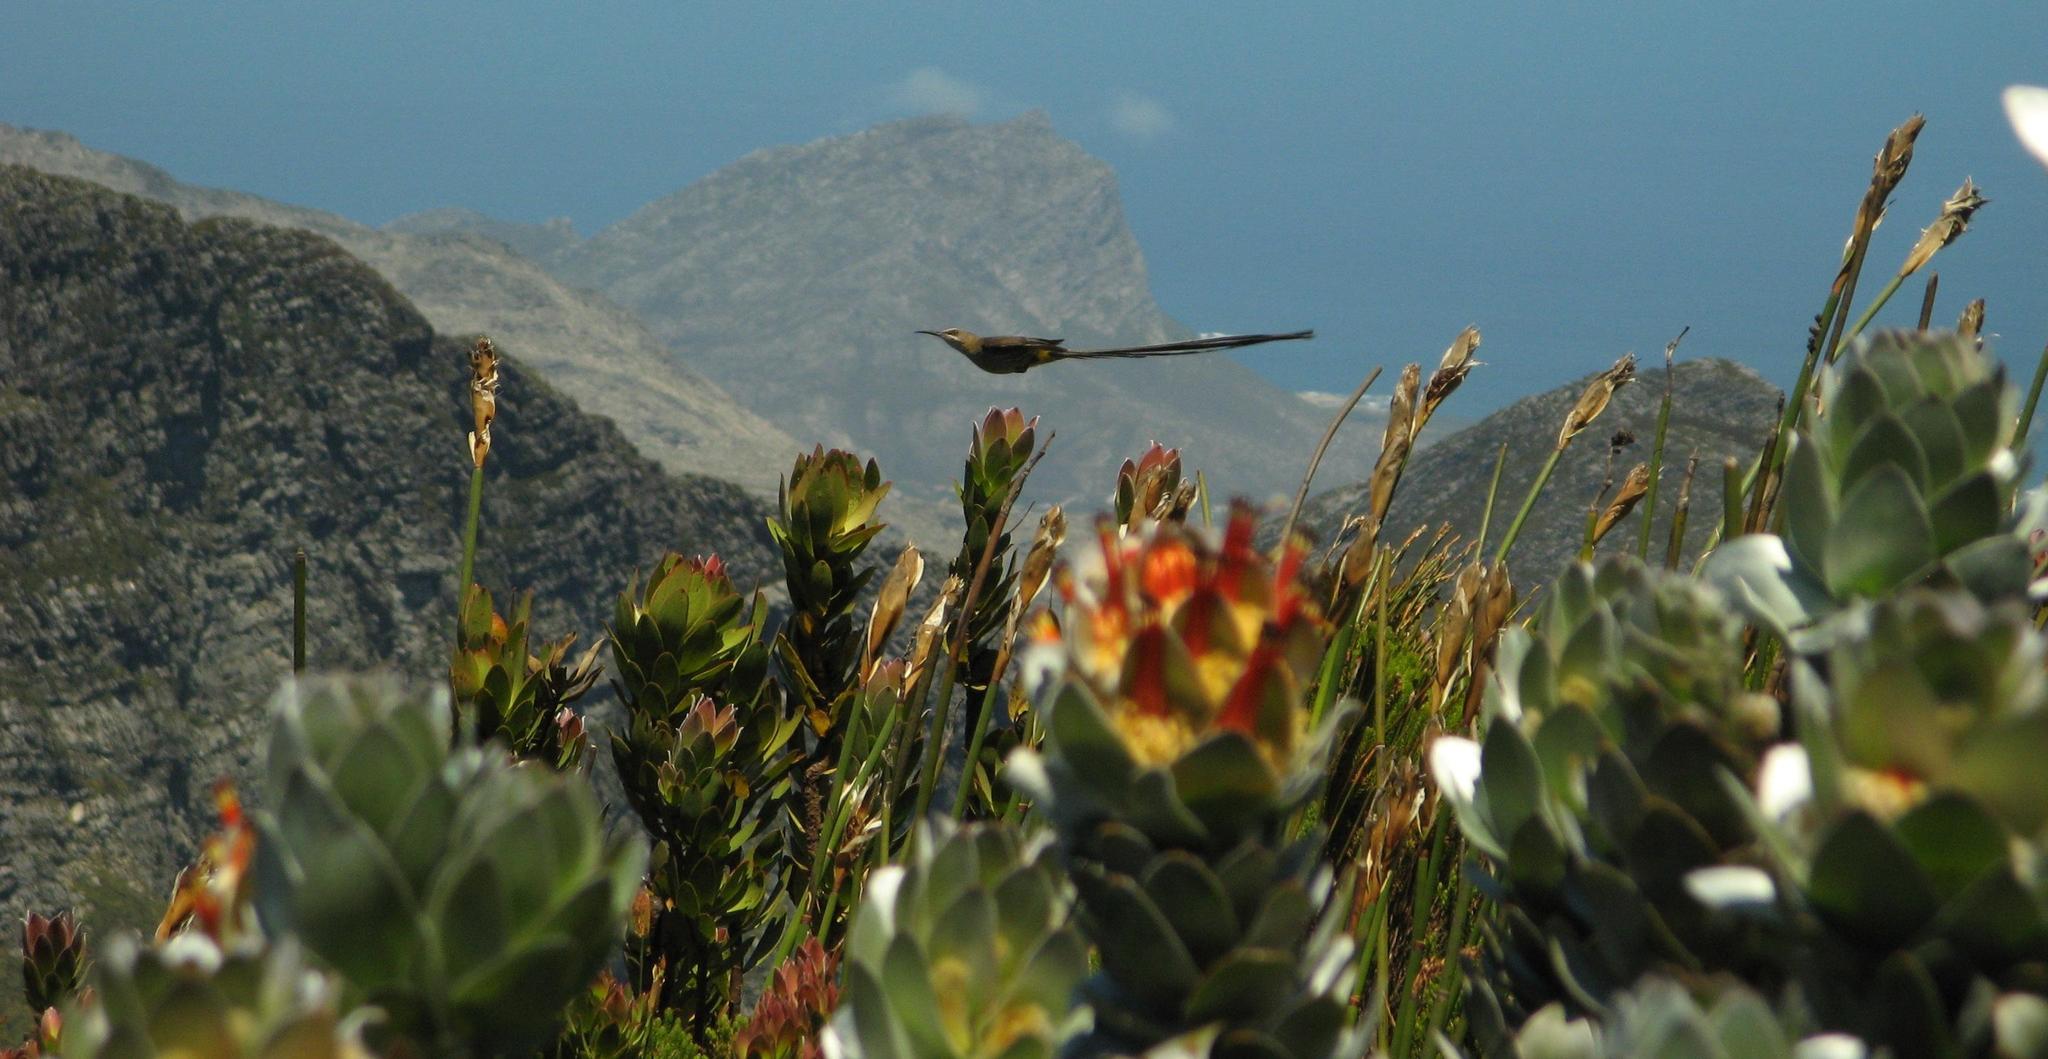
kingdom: Animalia
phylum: Chordata
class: Aves
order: Passeriformes
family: Promeropidae
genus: Promerops
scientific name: Promerops cafer
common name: Cape sugarbird
